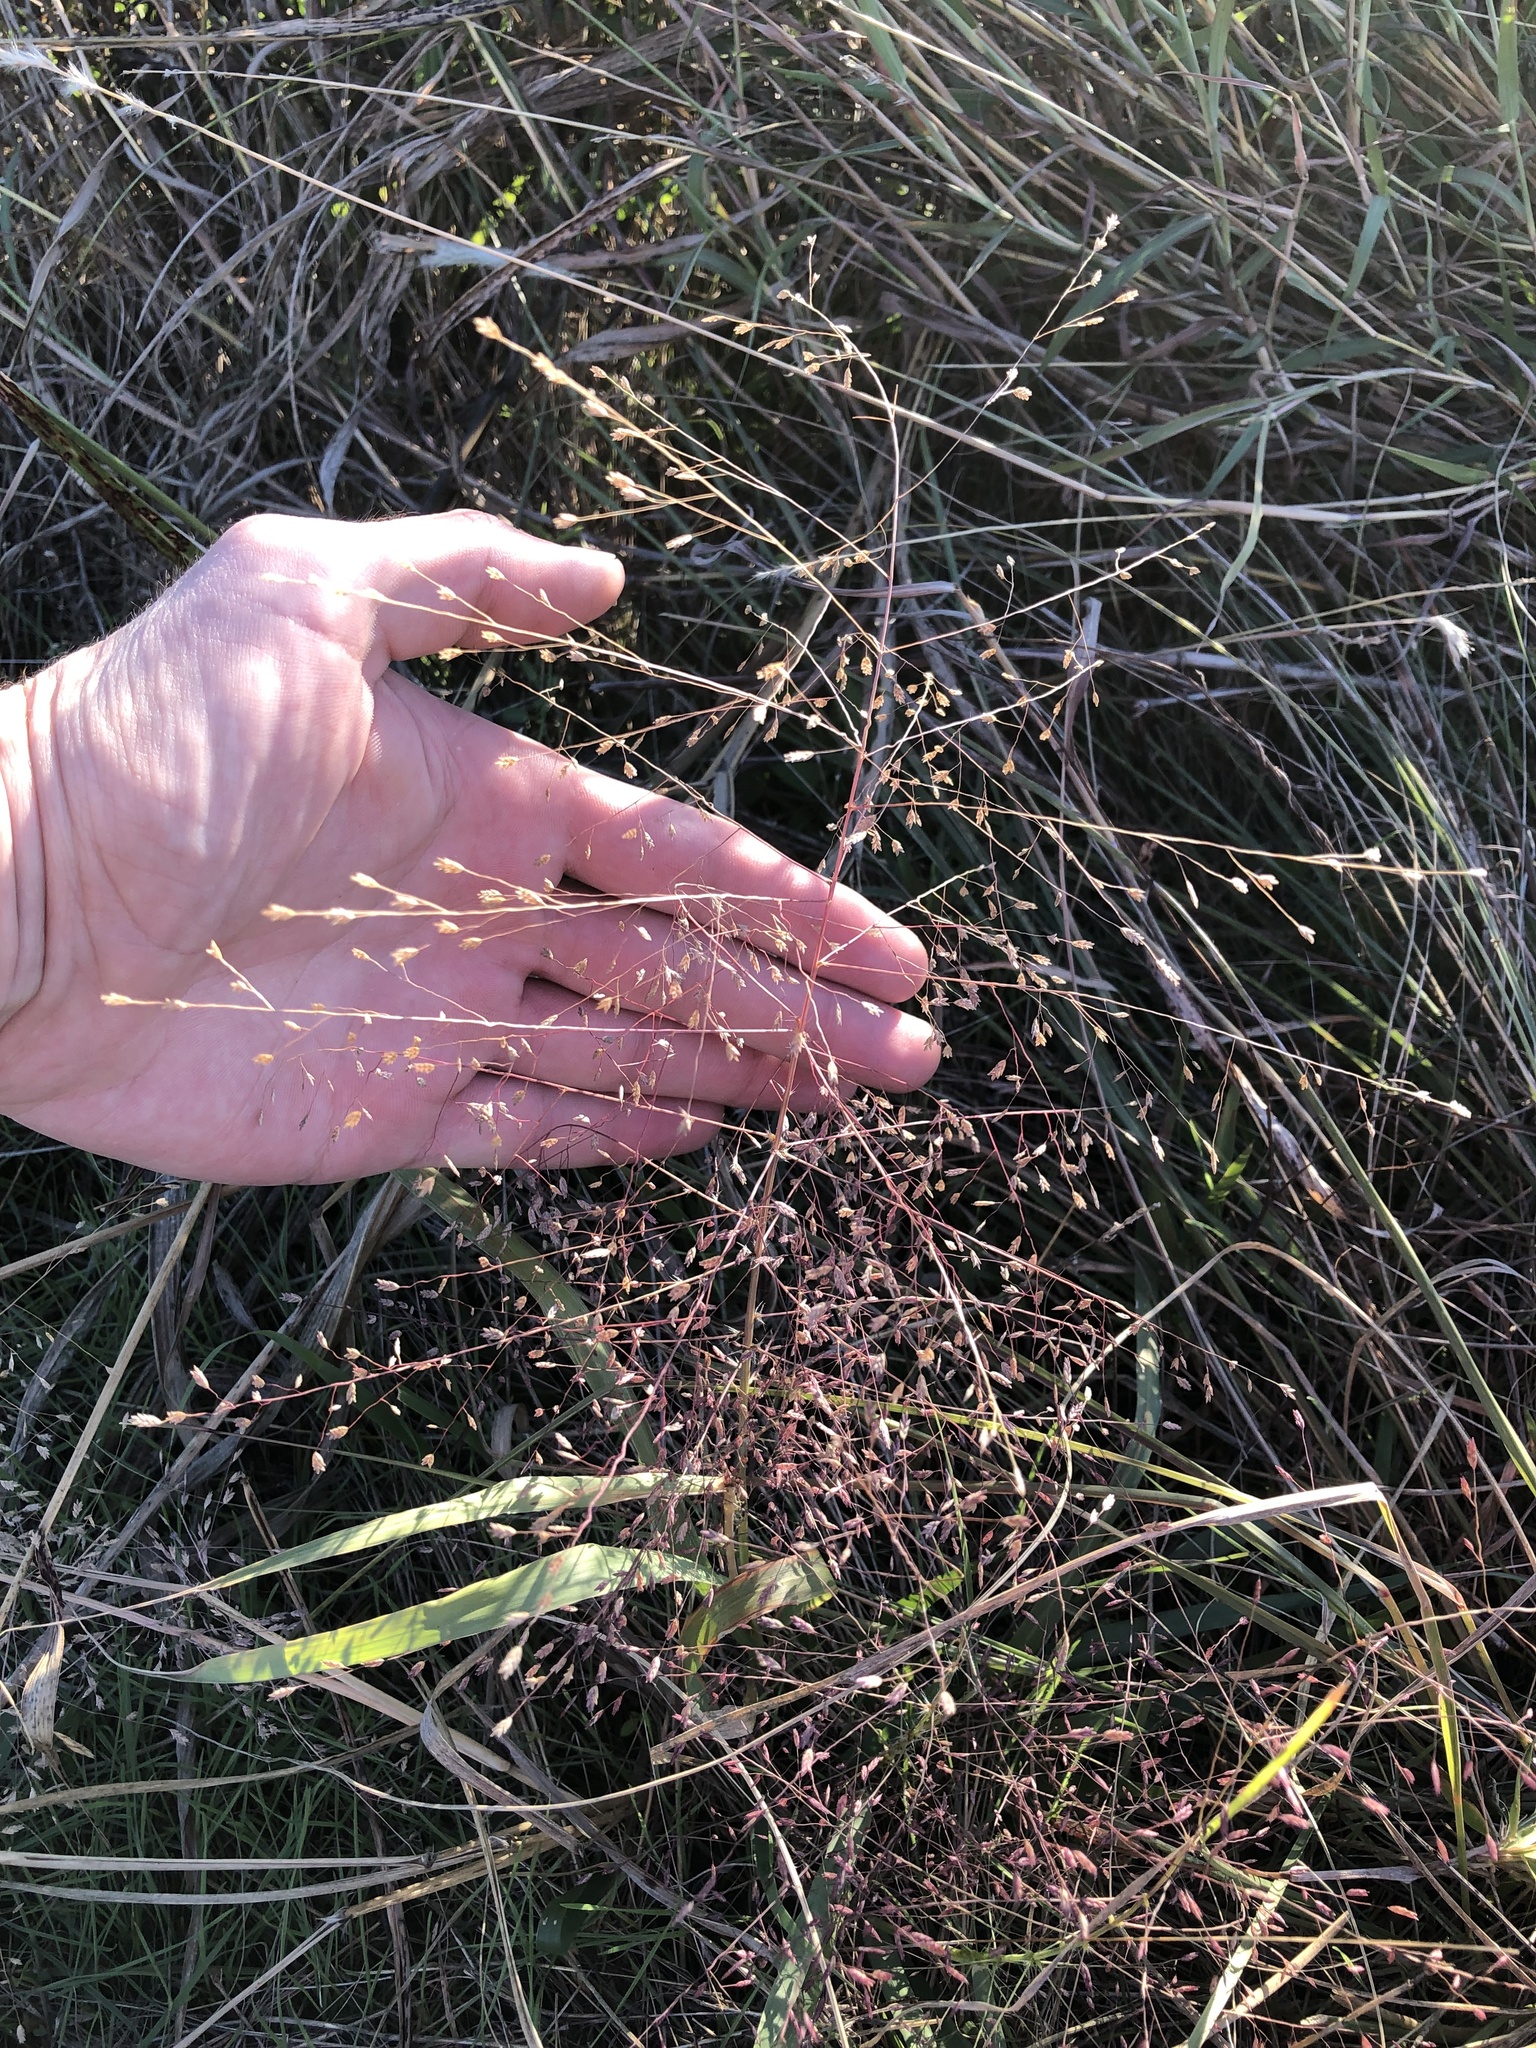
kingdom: Plantae
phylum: Tracheophyta
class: Liliopsida
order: Poales
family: Poaceae
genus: Eragrostis
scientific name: Eragrostis spectabilis
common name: Petticoat-climber
